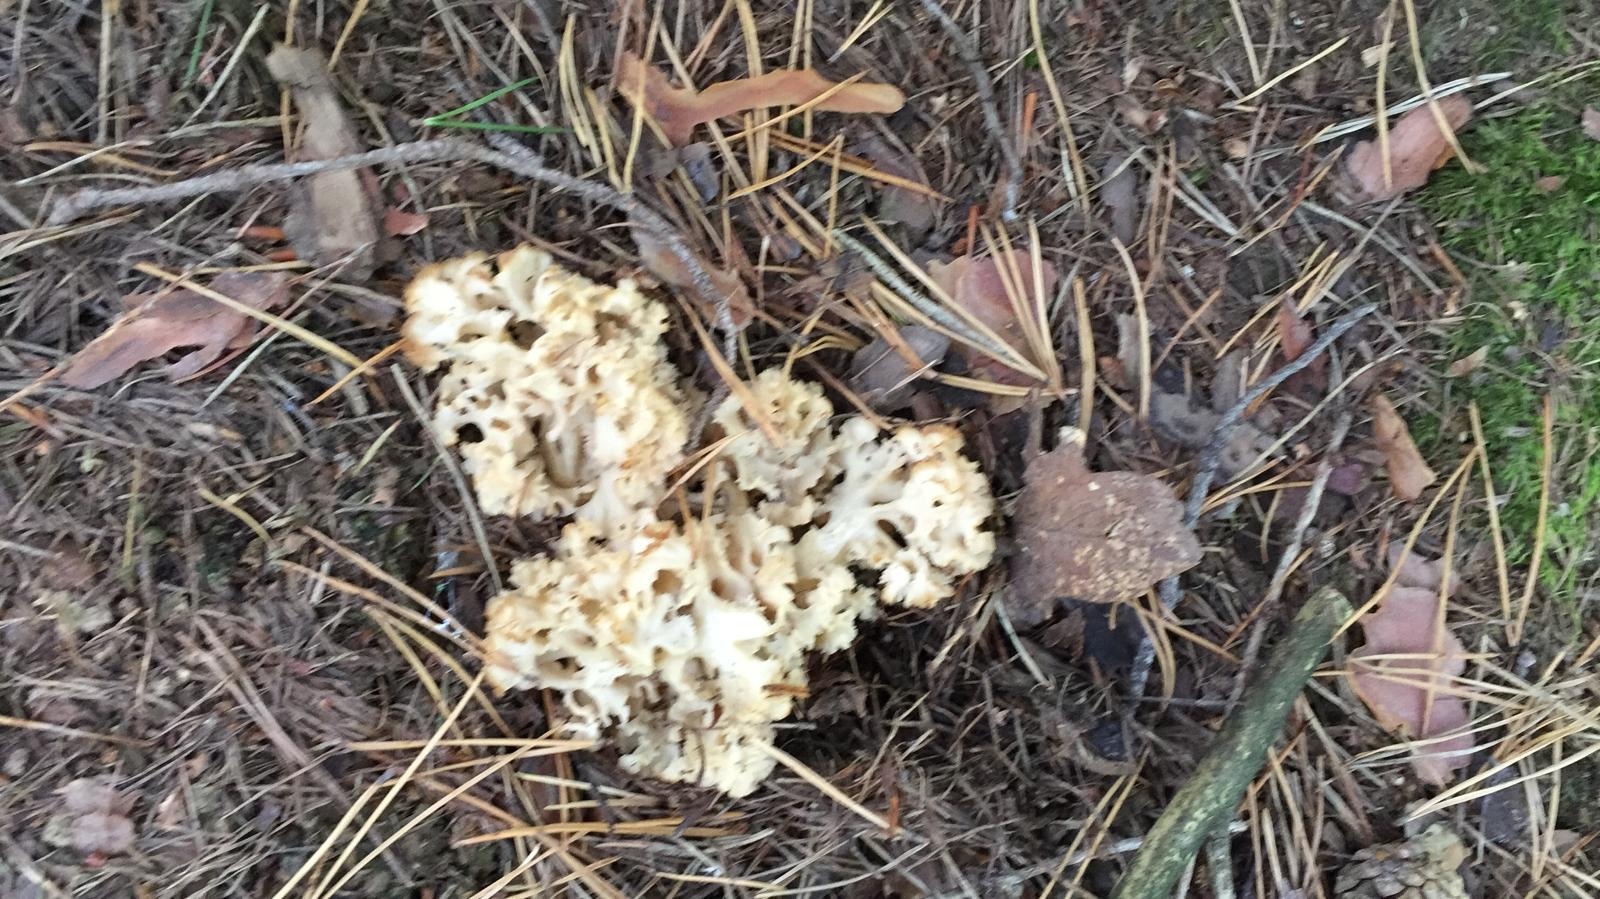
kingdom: Fungi
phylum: Basidiomycota
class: Agaricomycetes
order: Polyporales
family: Sparassidaceae
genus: Sparassis
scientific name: Sparassis crispa
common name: Brain fungus
